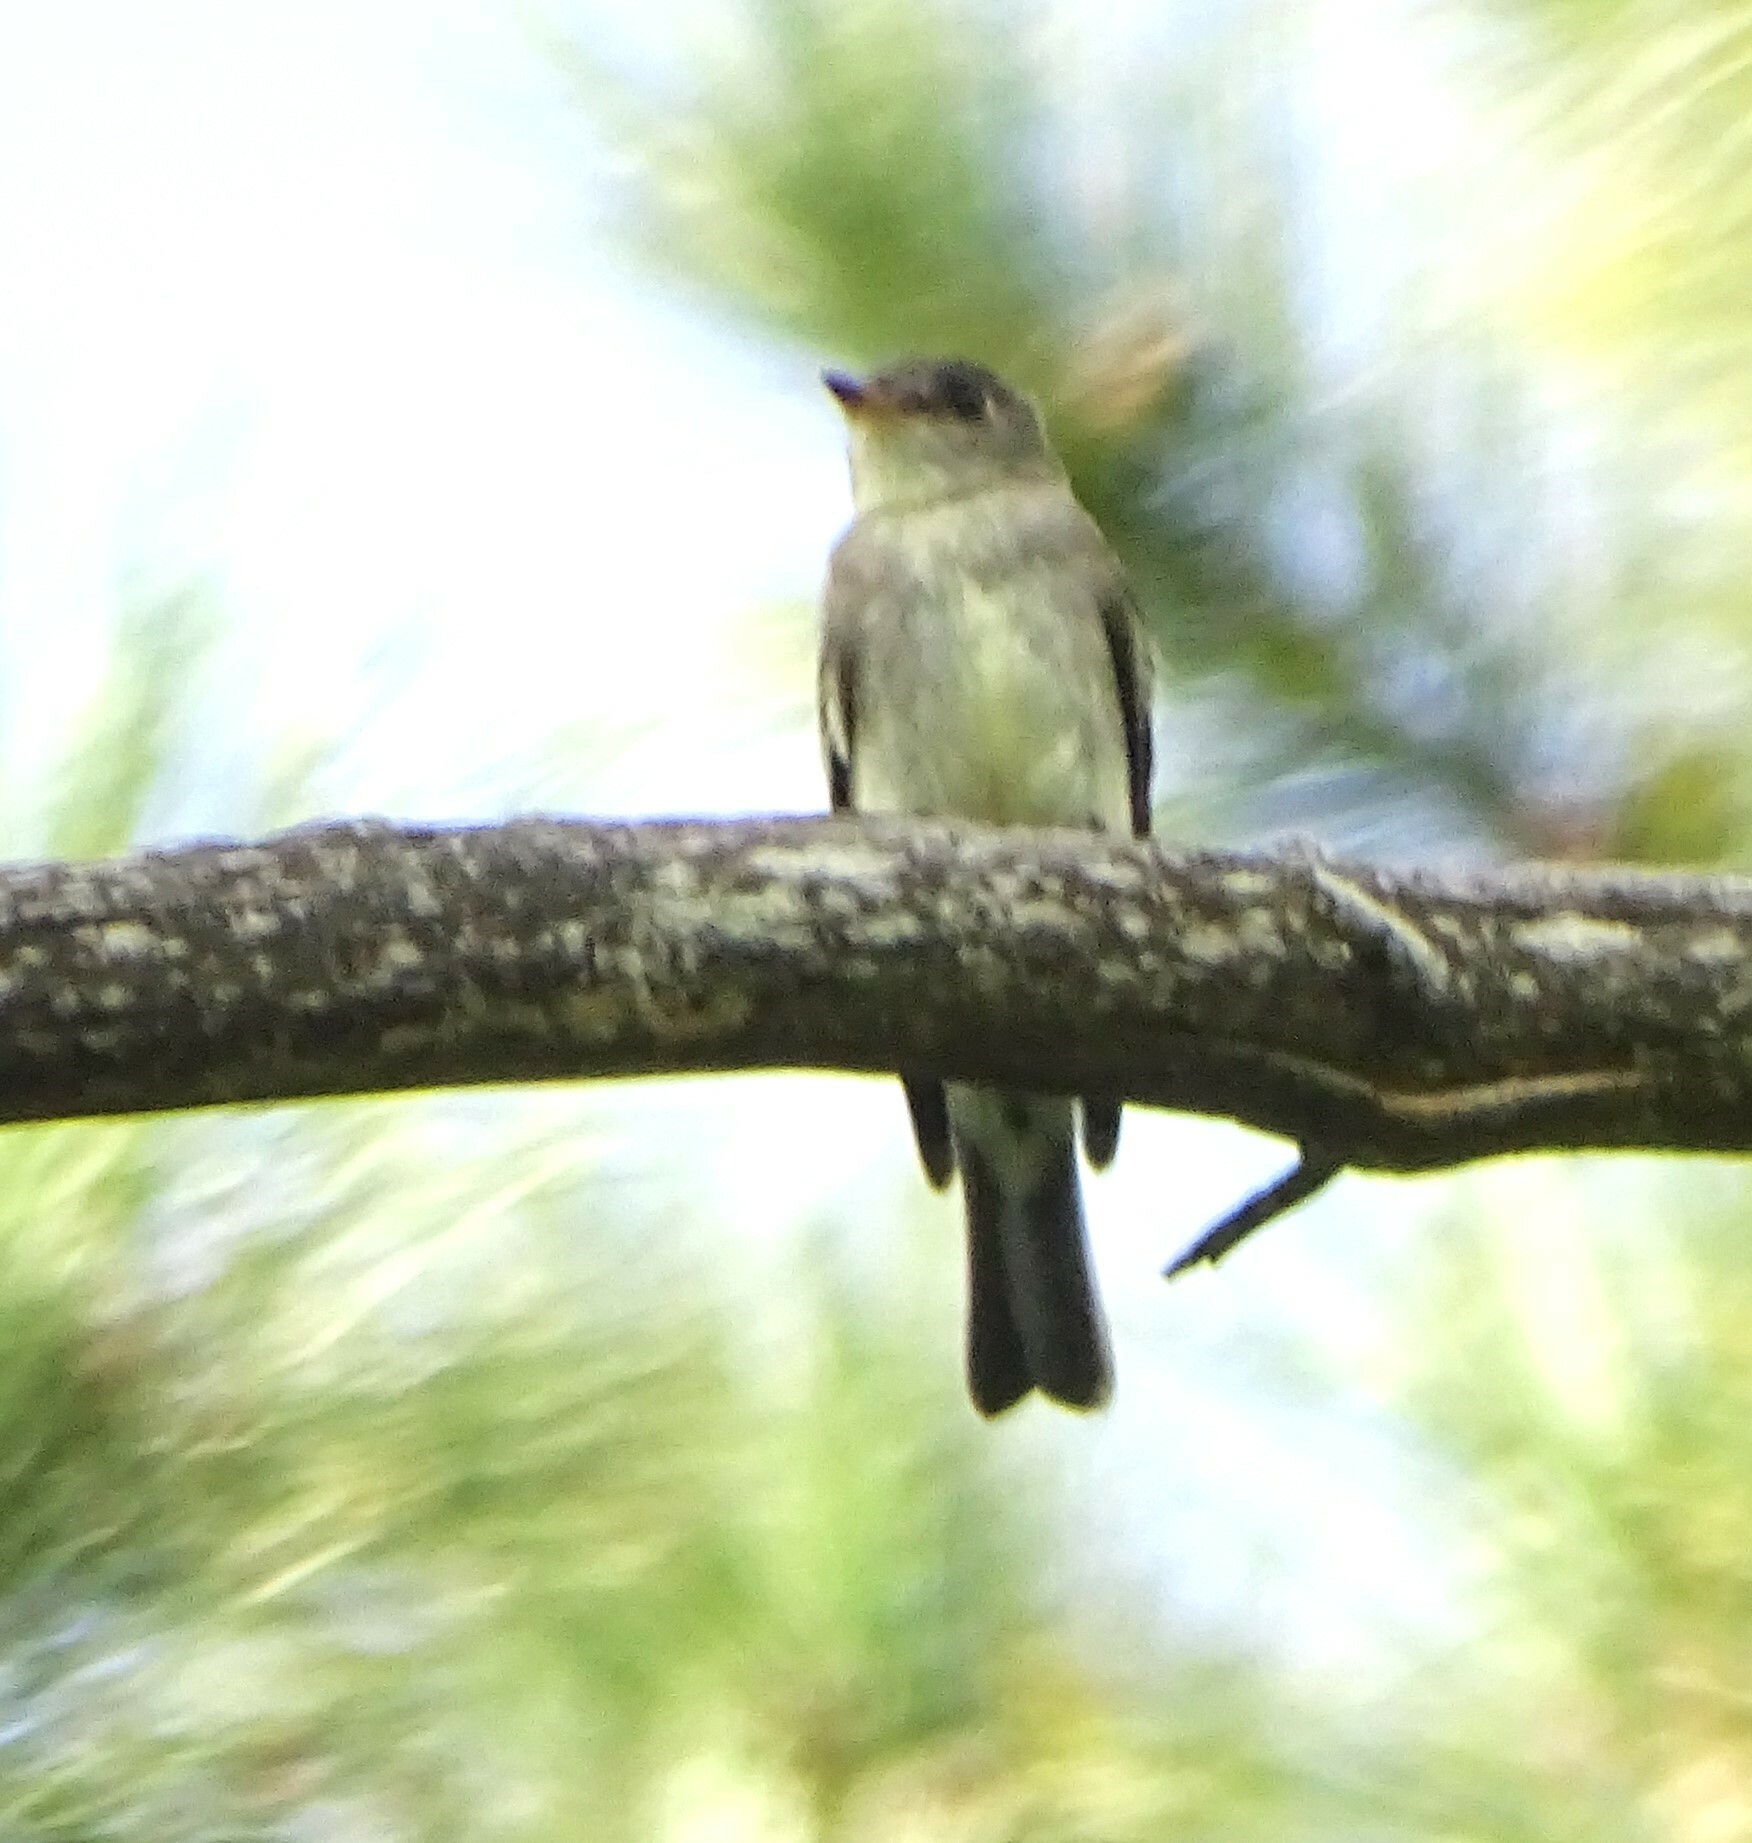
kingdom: Animalia
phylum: Chordata
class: Aves
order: Passeriformes
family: Tyrannidae
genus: Contopus
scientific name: Contopus virens
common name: Eastern wood-pewee
